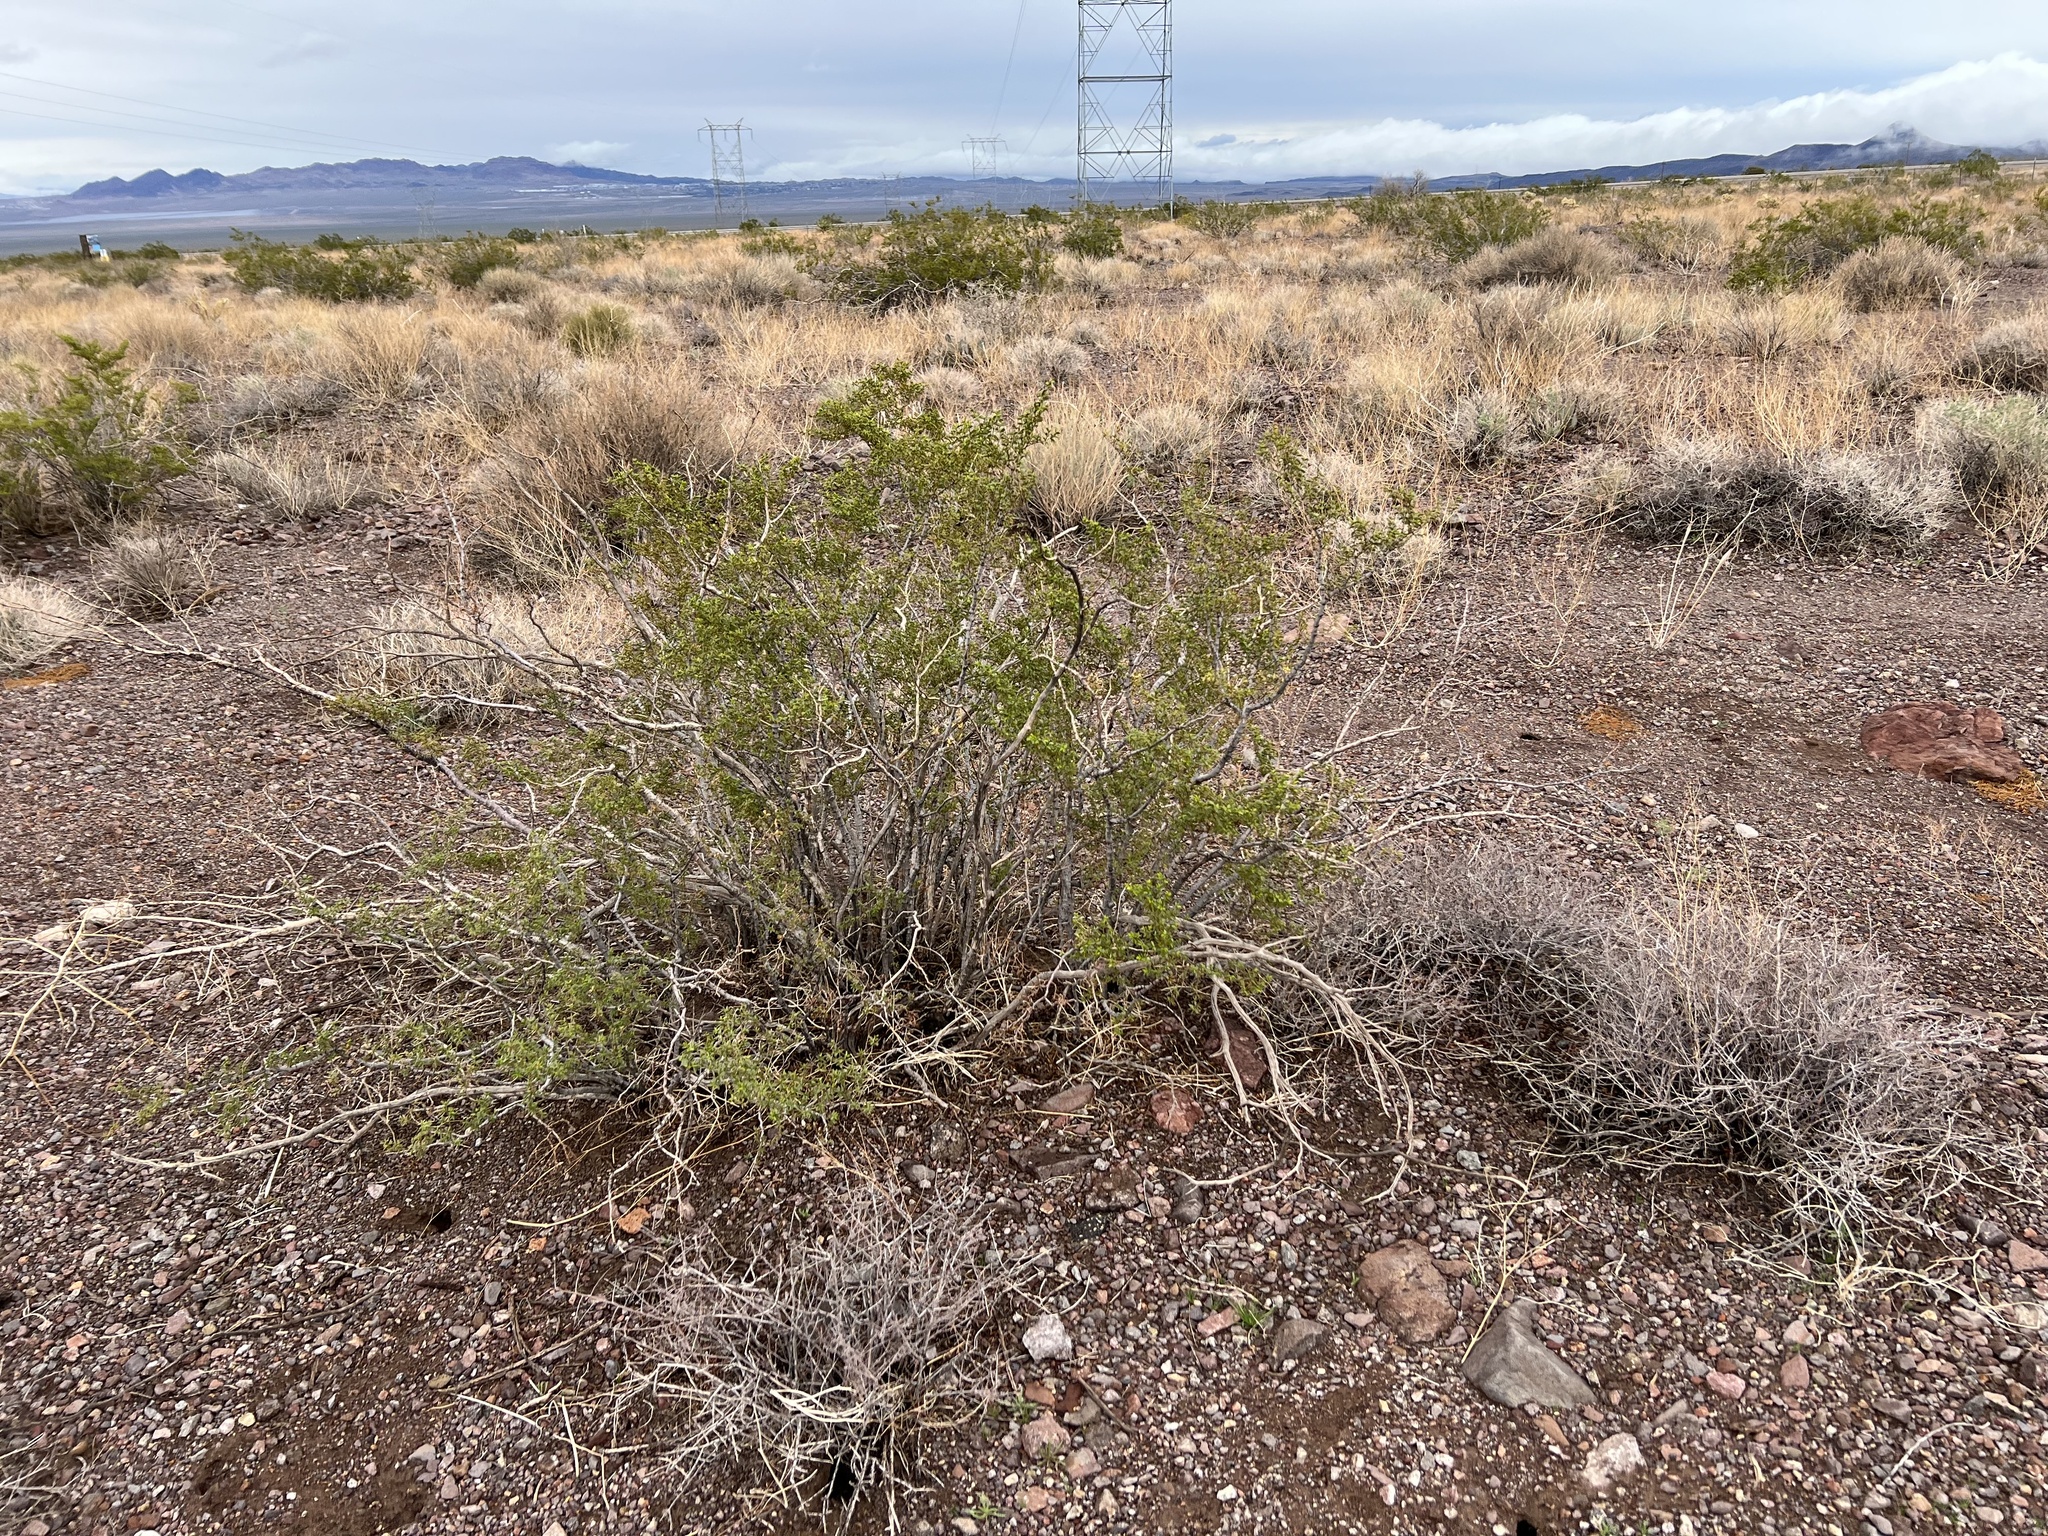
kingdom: Plantae
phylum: Tracheophyta
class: Magnoliopsida
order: Zygophyllales
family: Zygophyllaceae
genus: Larrea
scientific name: Larrea tridentata
